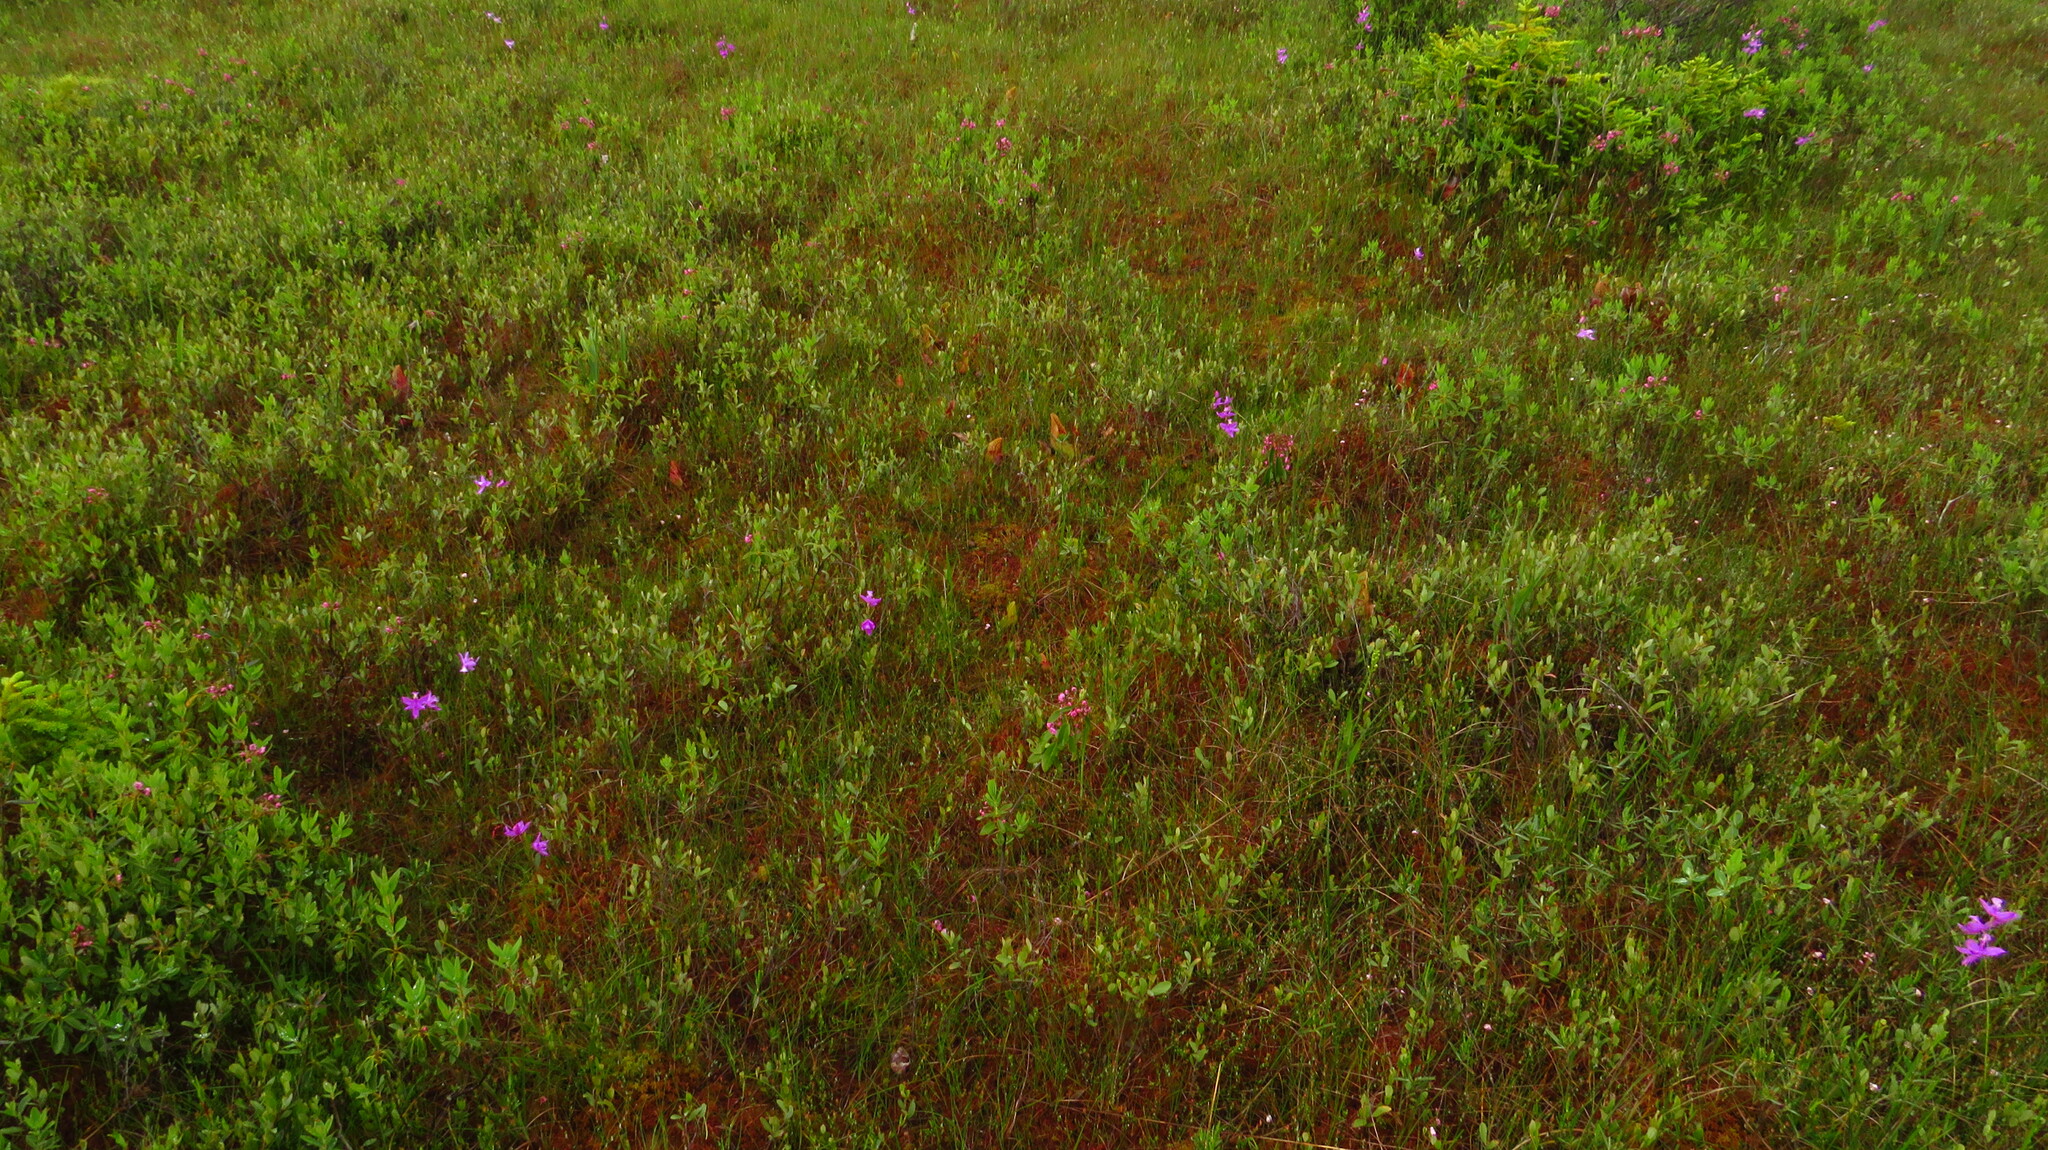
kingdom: Plantae
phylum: Tracheophyta
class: Liliopsida
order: Asparagales
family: Orchidaceae
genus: Calopogon
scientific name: Calopogon tuberosus
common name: Grass-pink
